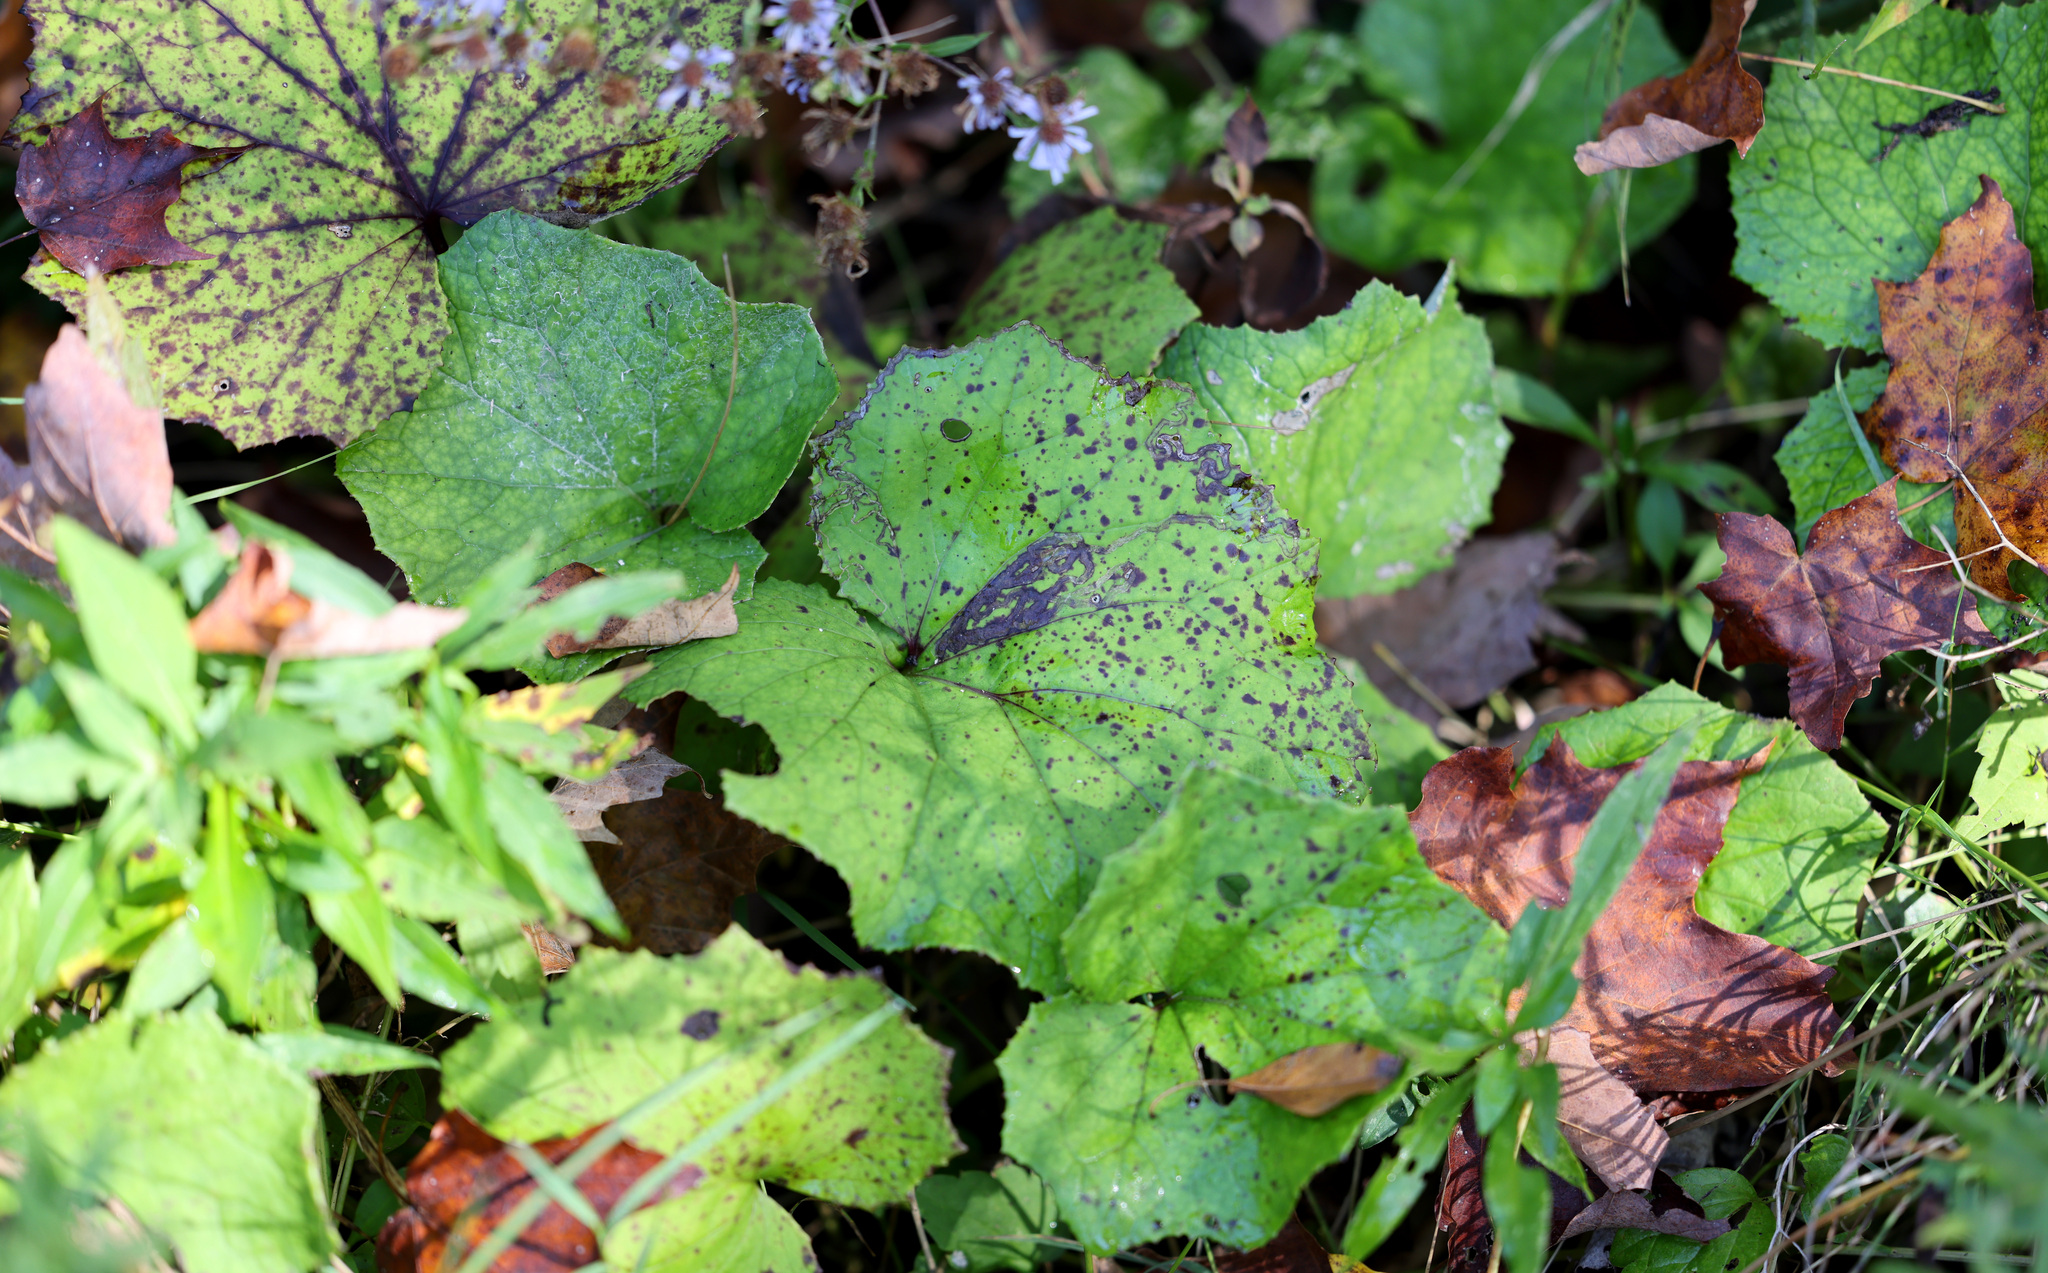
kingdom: Plantae
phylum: Tracheophyta
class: Magnoliopsida
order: Asterales
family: Asteraceae
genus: Tussilago
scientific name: Tussilago farfara
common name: Coltsfoot
